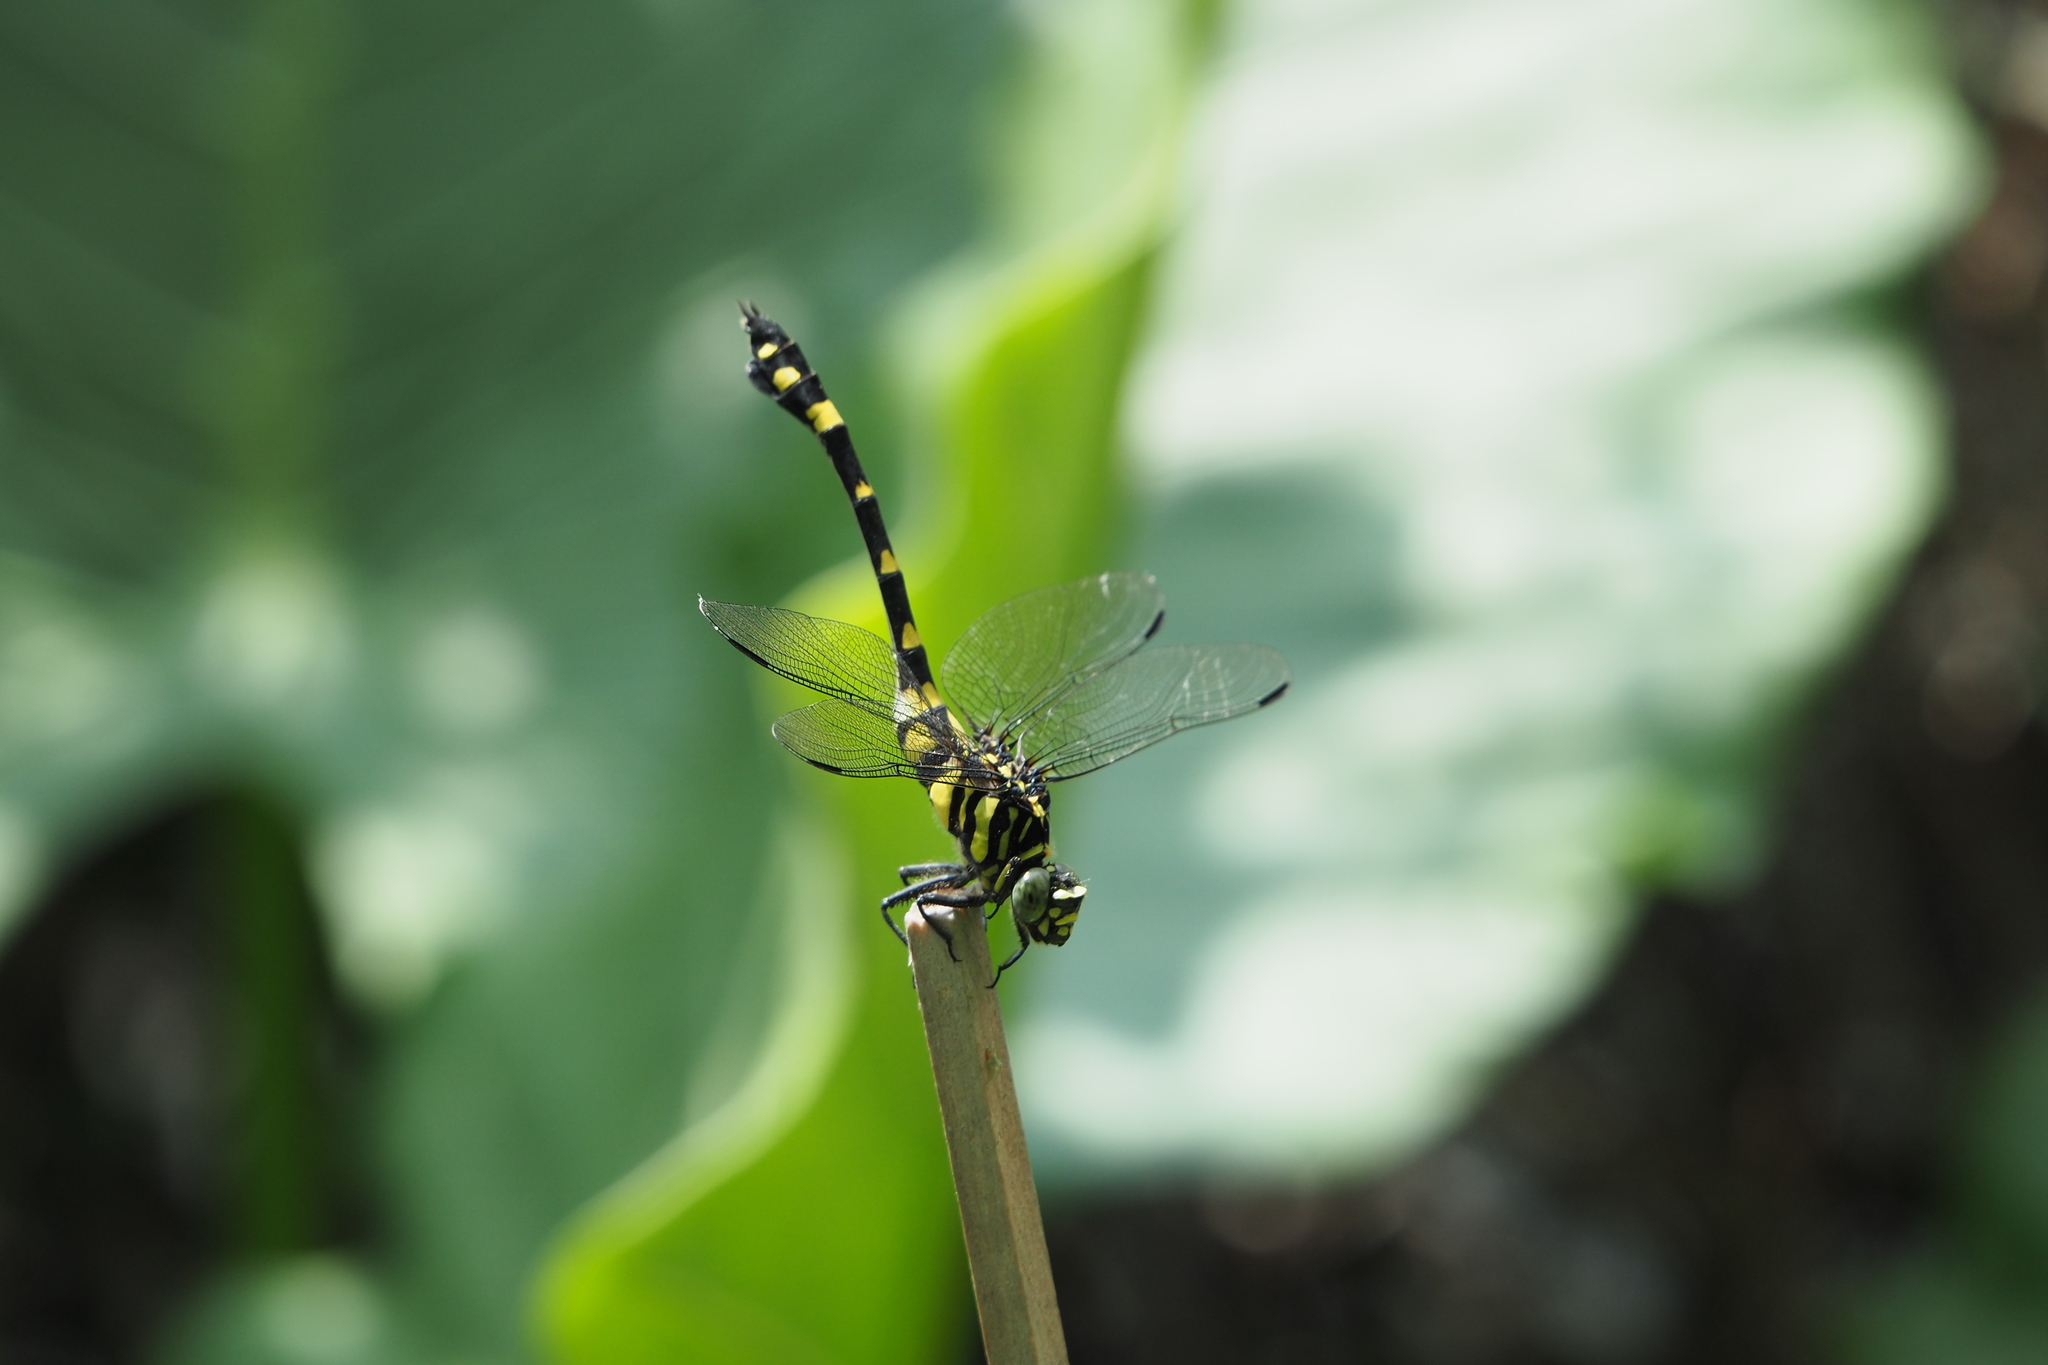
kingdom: Animalia
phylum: Arthropoda
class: Insecta
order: Odonata
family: Gomphidae
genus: Ictinogomphus
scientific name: Ictinogomphus rapax
